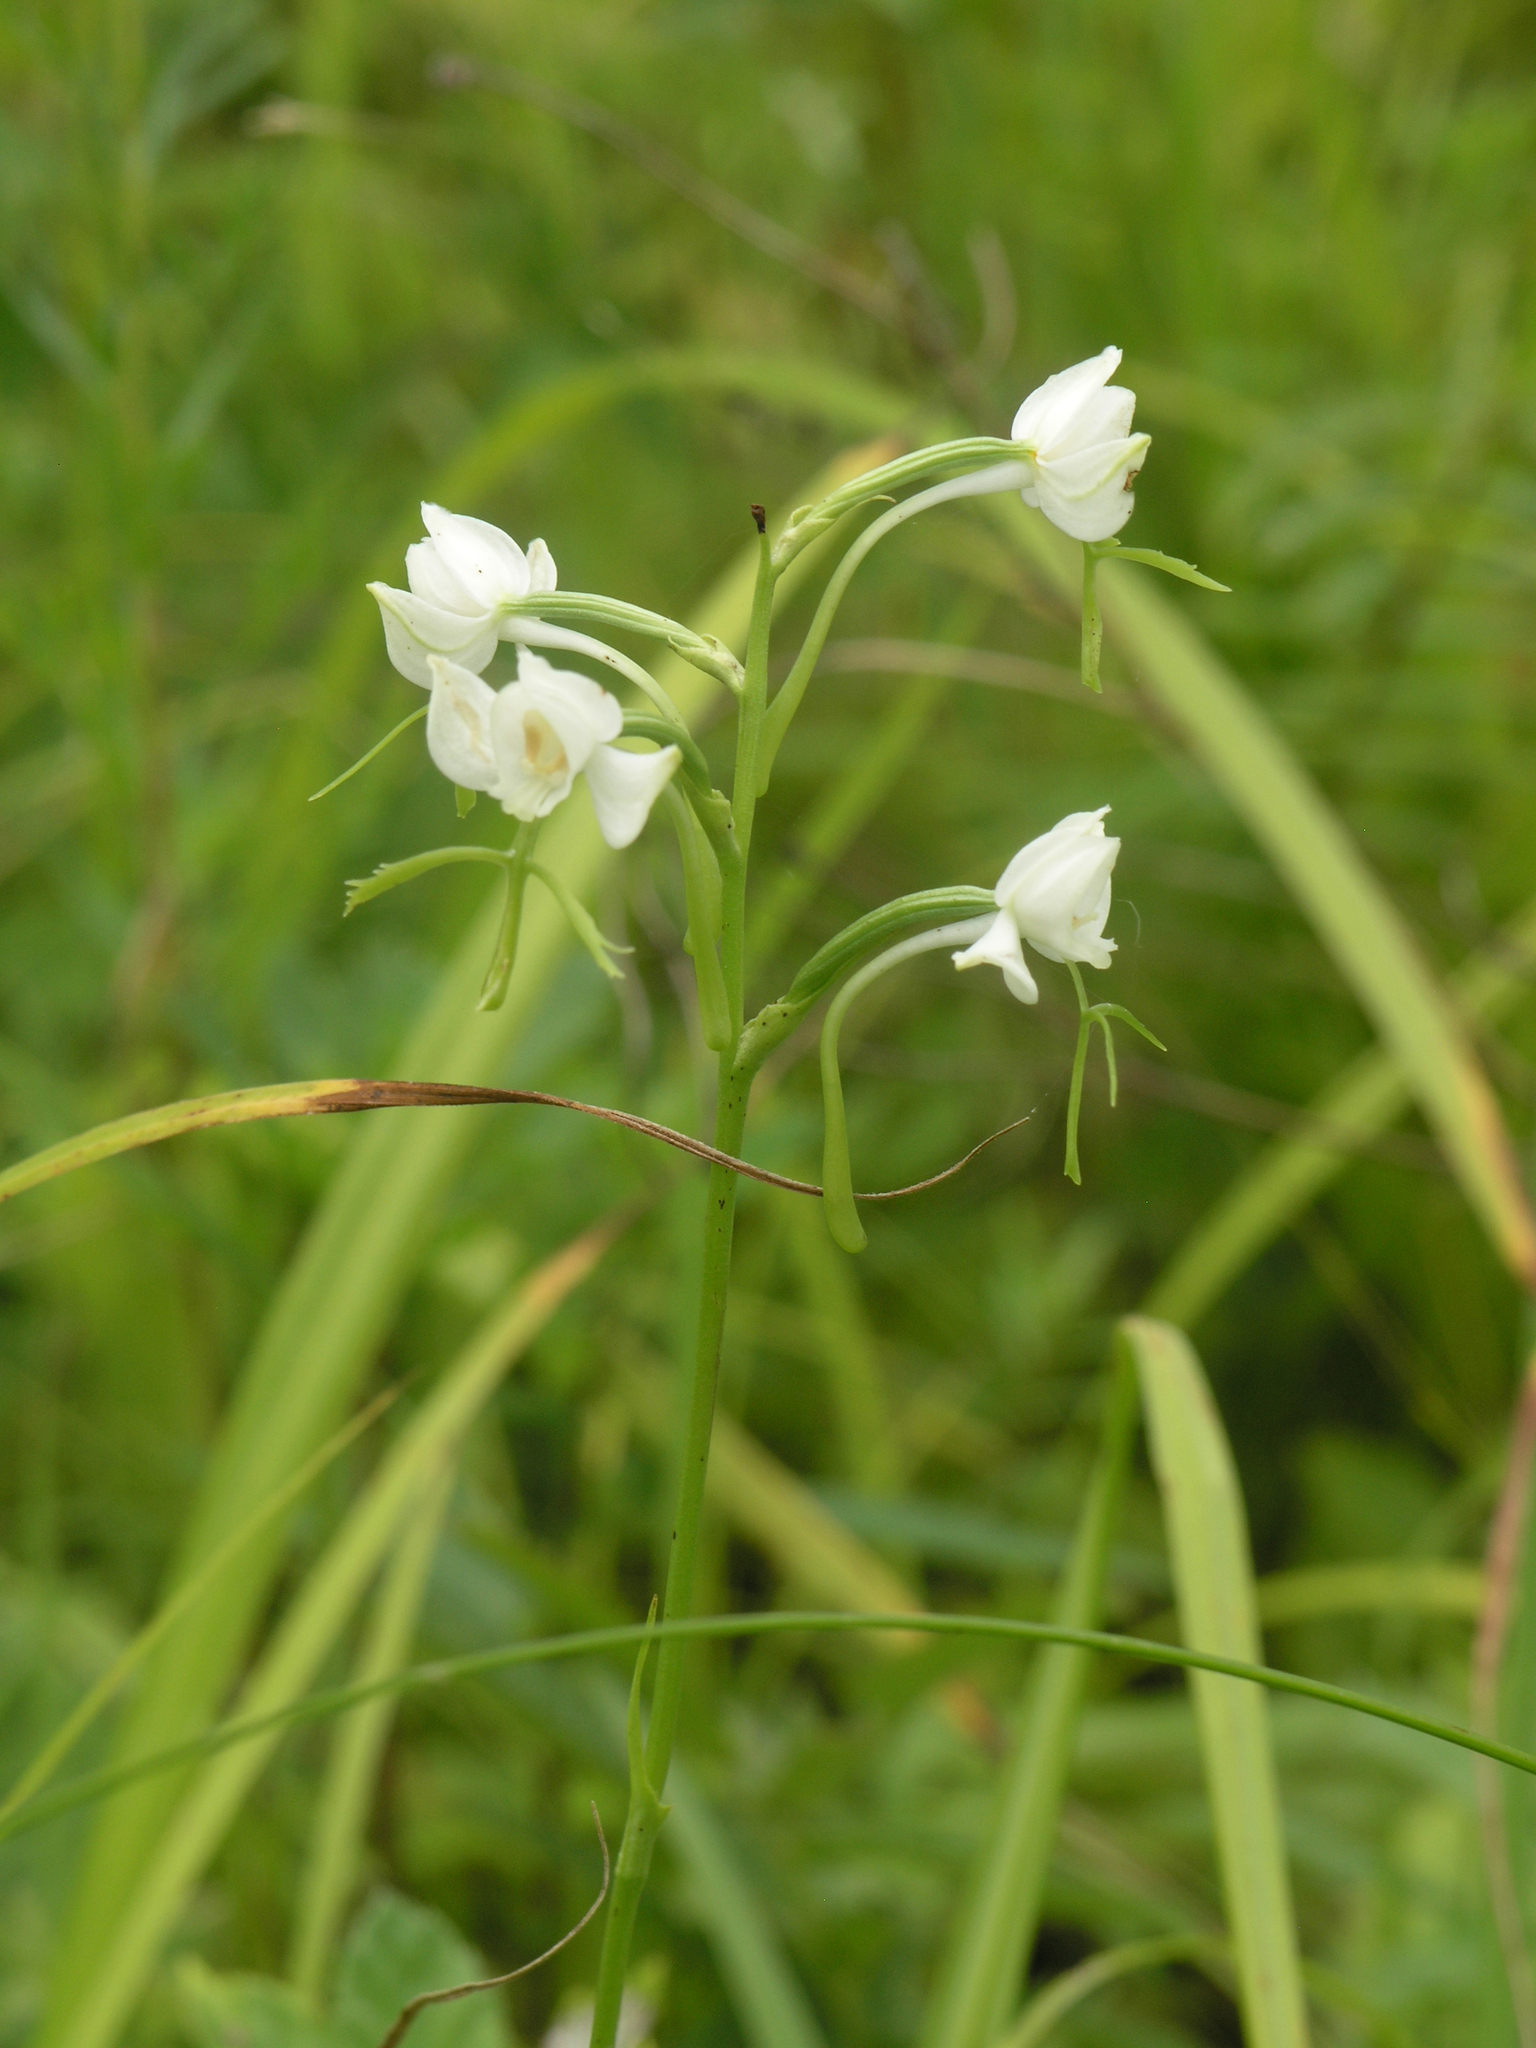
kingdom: Plantae
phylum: Tracheophyta
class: Liliopsida
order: Asparagales
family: Orchidaceae
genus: Habenaria
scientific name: Habenaria linearifolia
